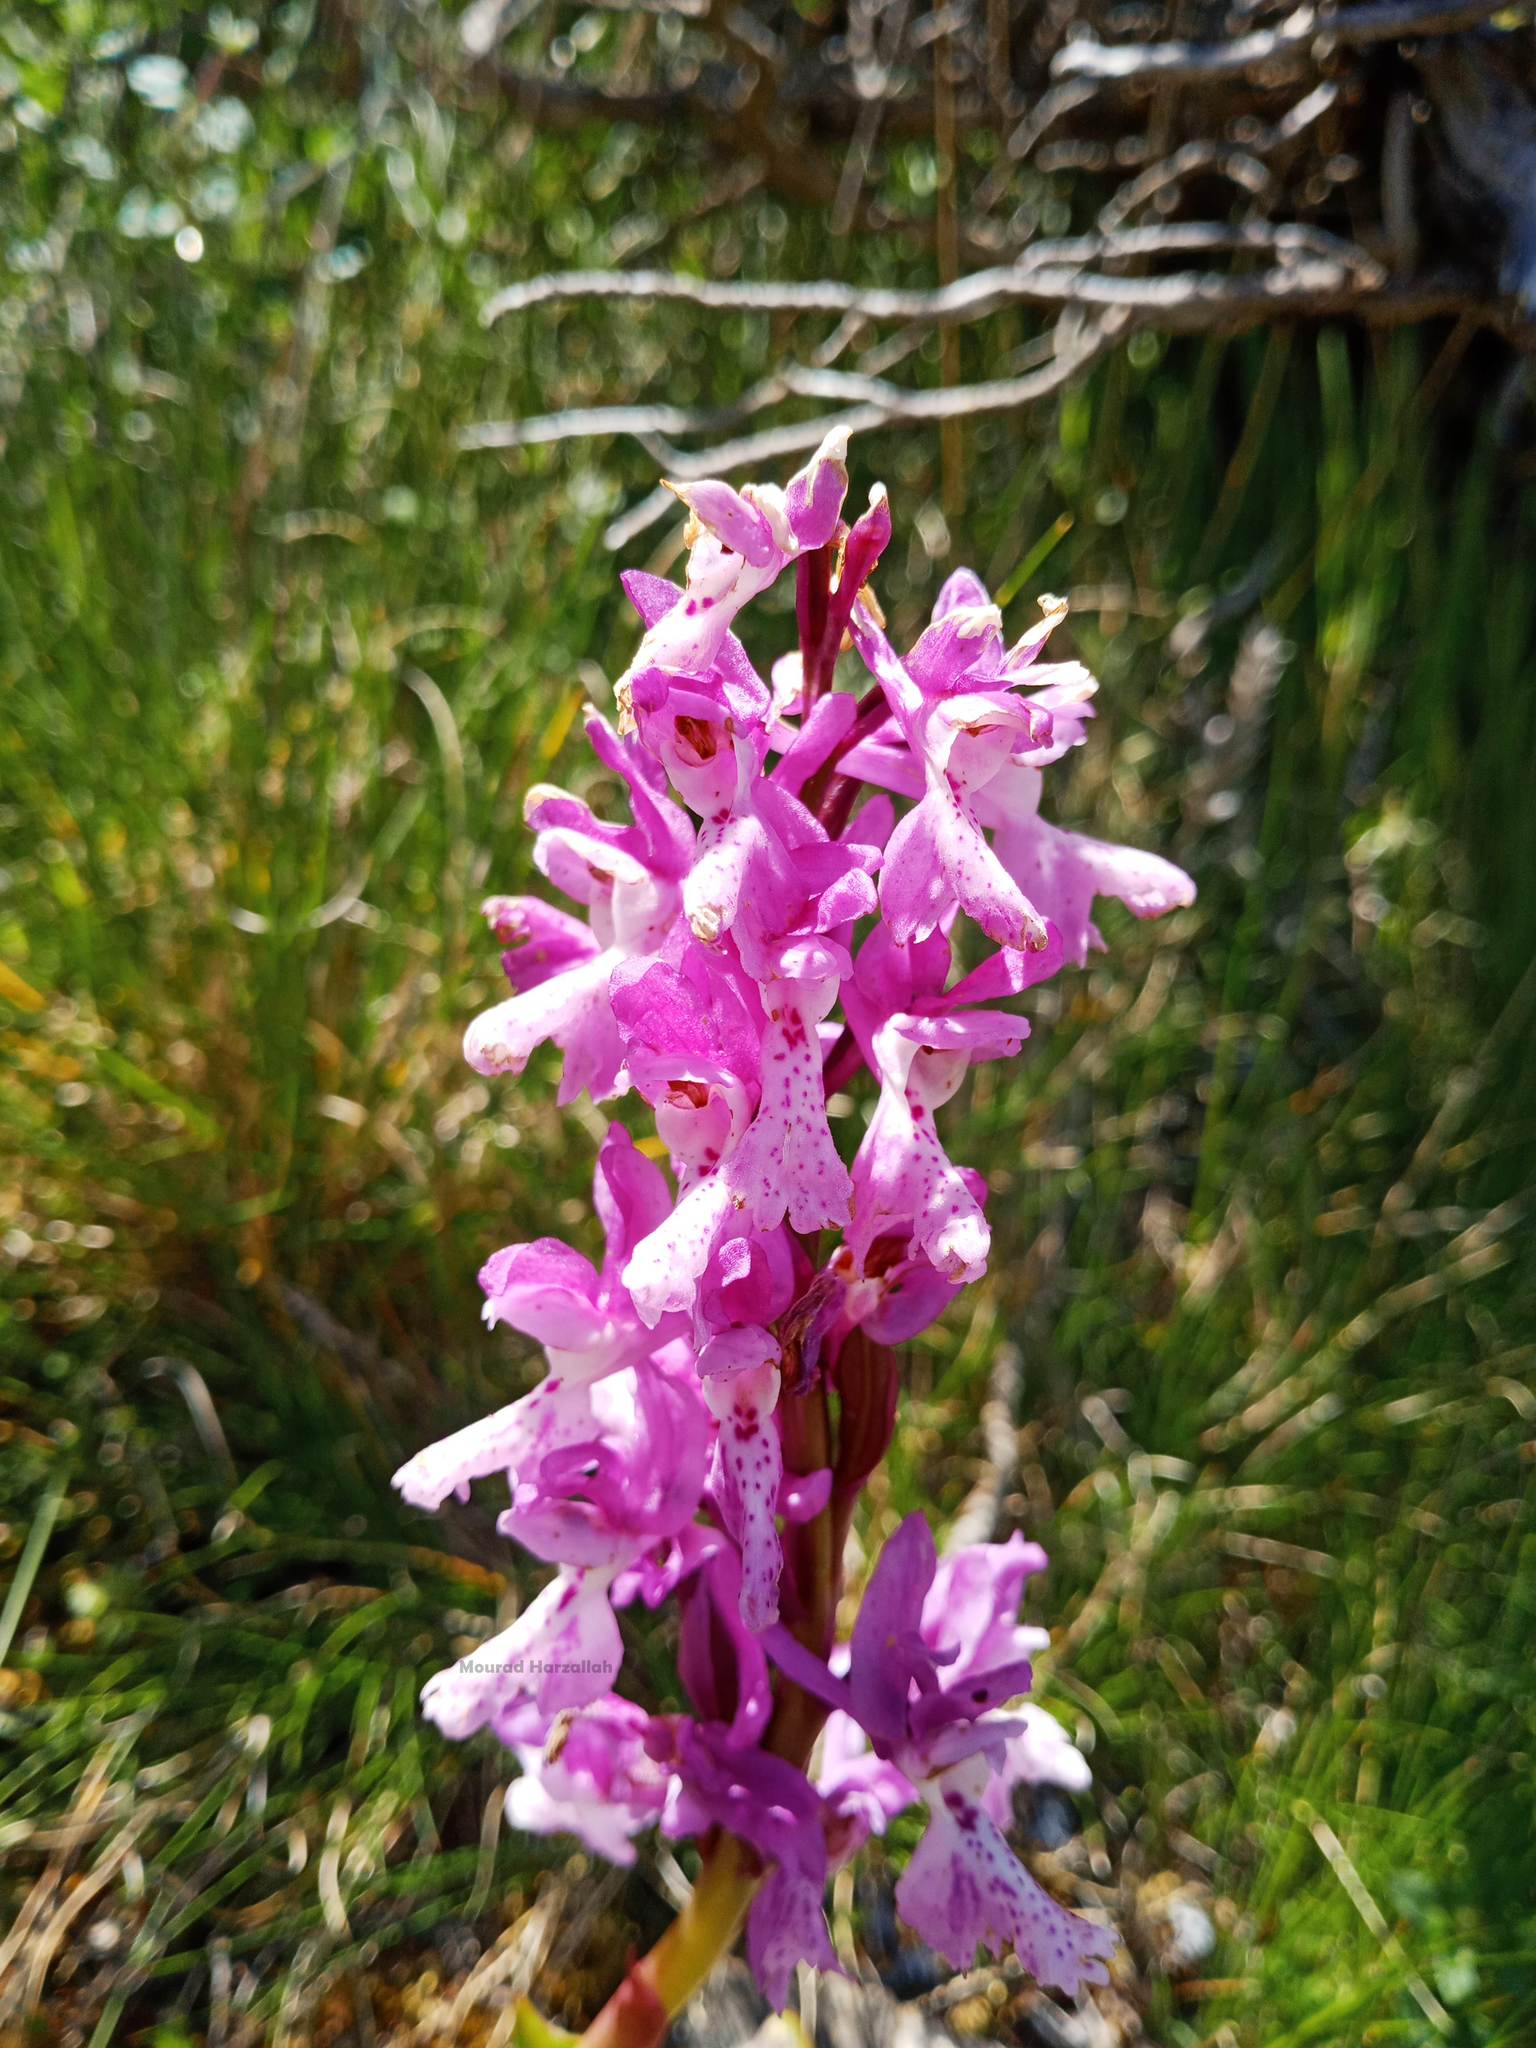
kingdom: Plantae
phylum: Tracheophyta
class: Liliopsida
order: Asparagales
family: Orchidaceae
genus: Orchis
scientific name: Orchis olbiensis
